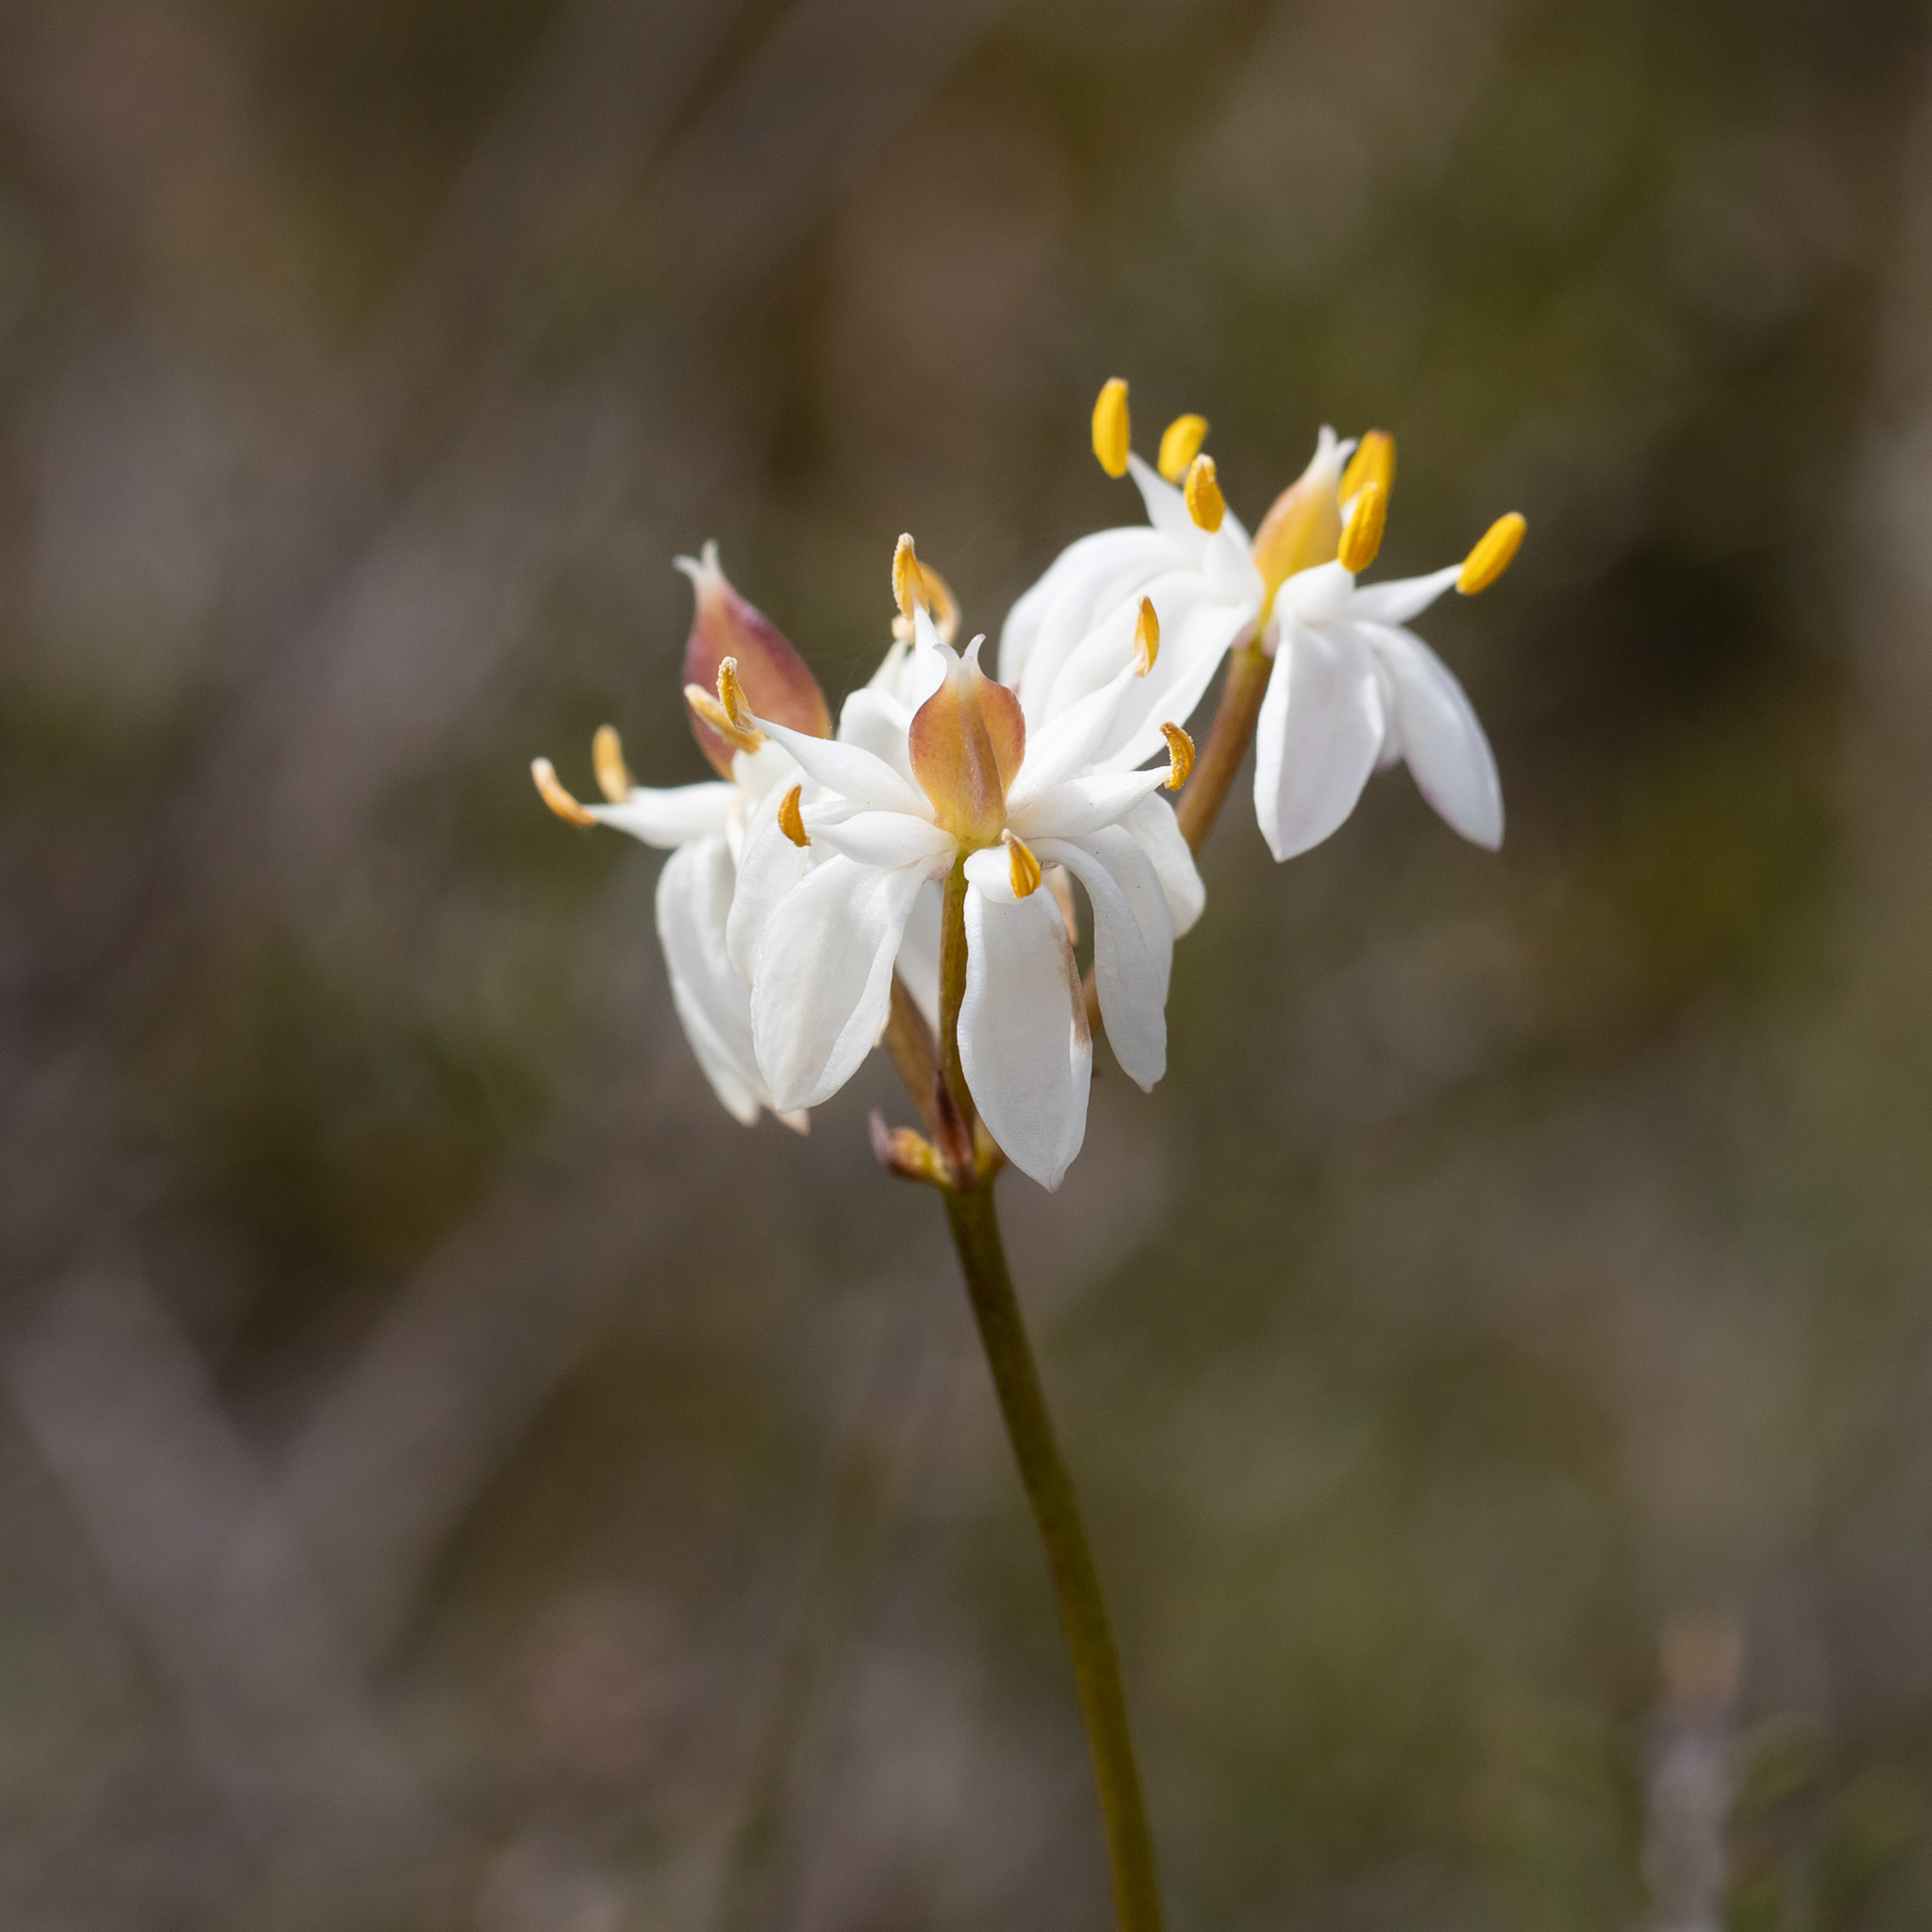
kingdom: Plantae
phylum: Tracheophyta
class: Liliopsida
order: Liliales
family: Colchicaceae
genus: Burchardia
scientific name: Burchardia congesta
